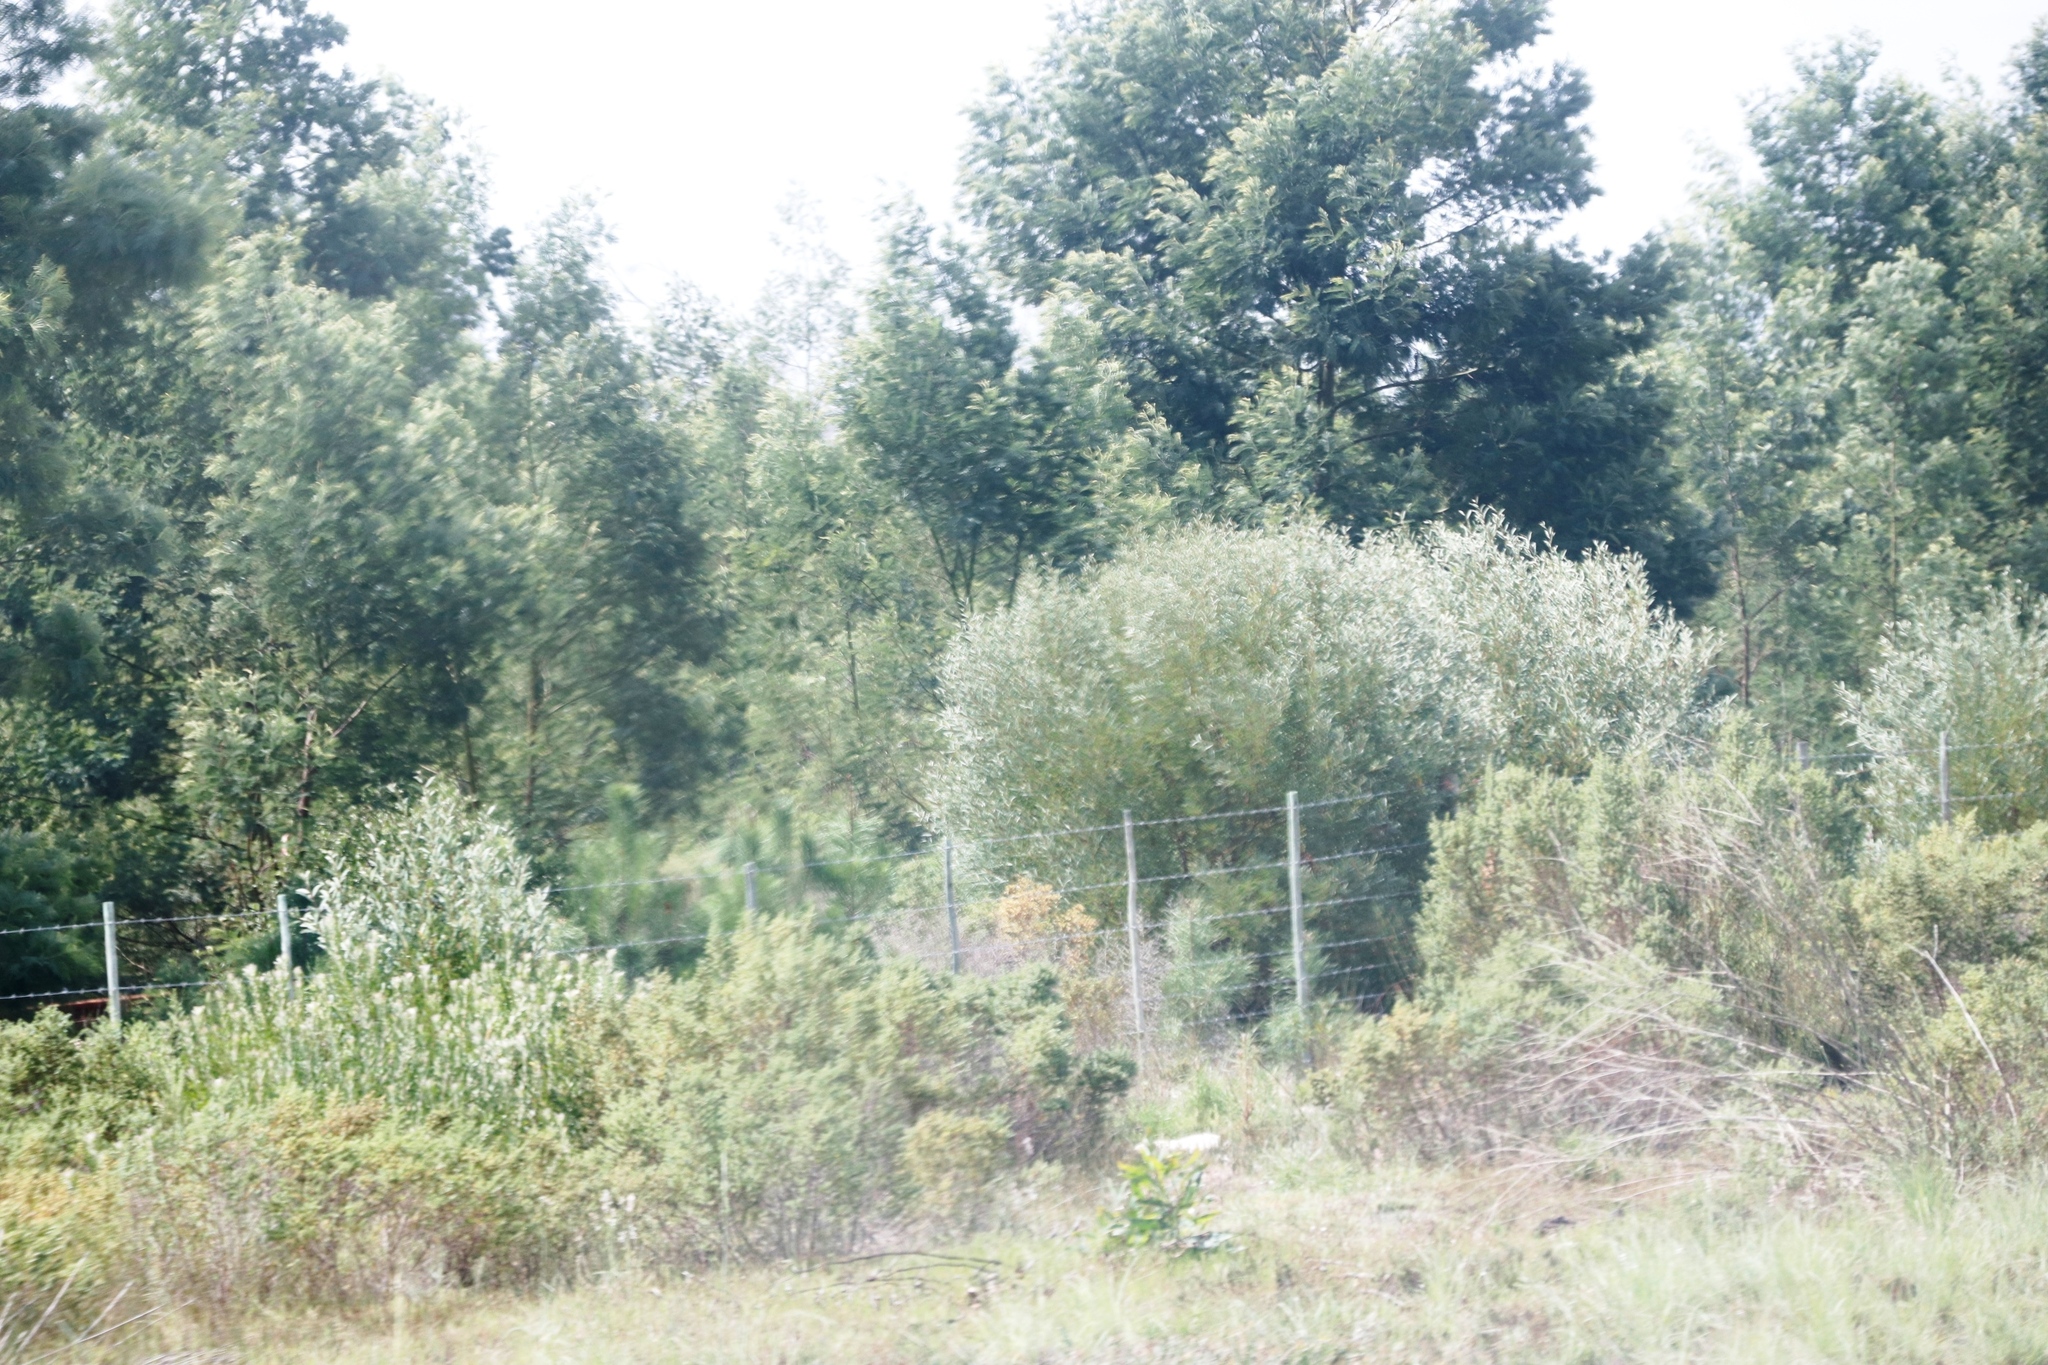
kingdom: Plantae
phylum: Tracheophyta
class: Magnoliopsida
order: Fabales
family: Fabaceae
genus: Acacia
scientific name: Acacia longifolia
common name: Sydney golden wattle
